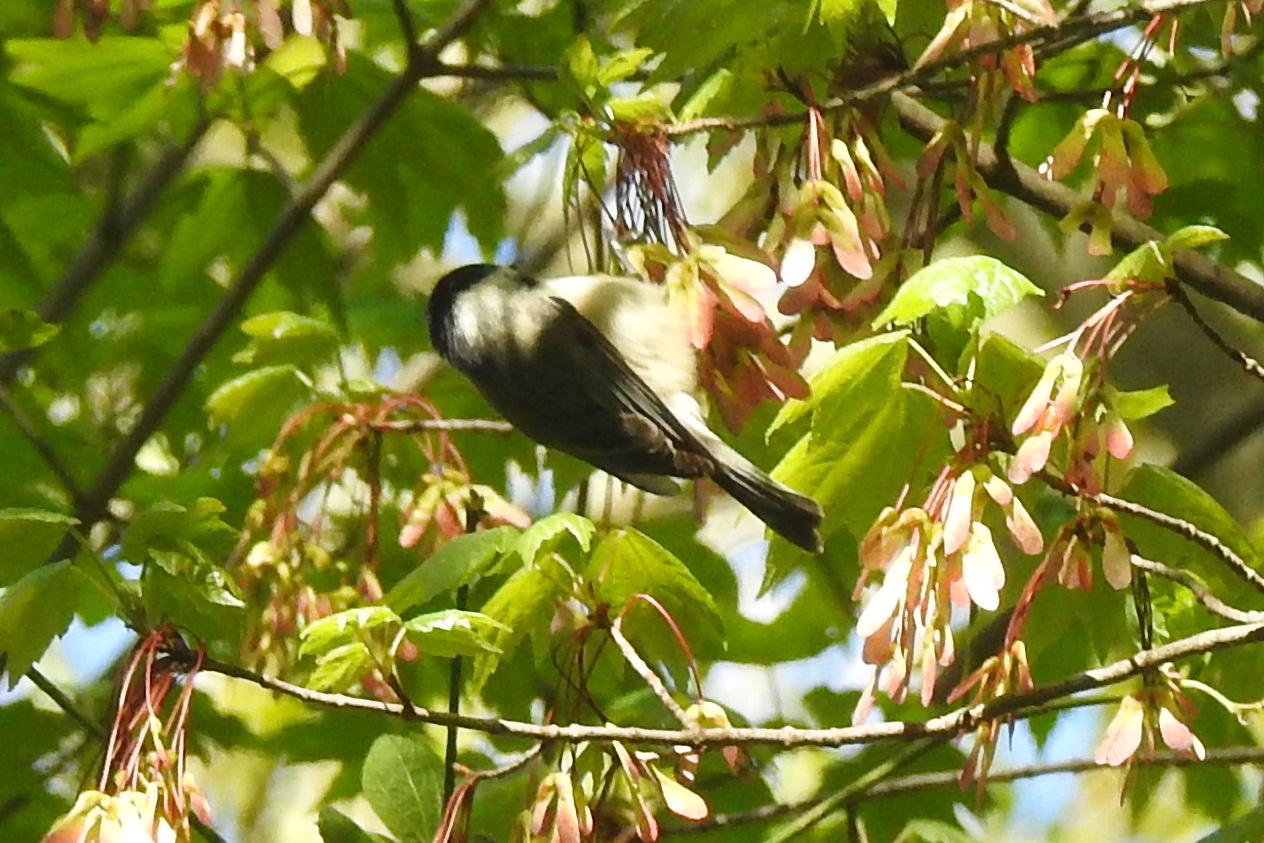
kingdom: Animalia
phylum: Chordata
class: Aves
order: Passeriformes
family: Paridae
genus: Poecile
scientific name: Poecile carolinensis
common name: Carolina chickadee
